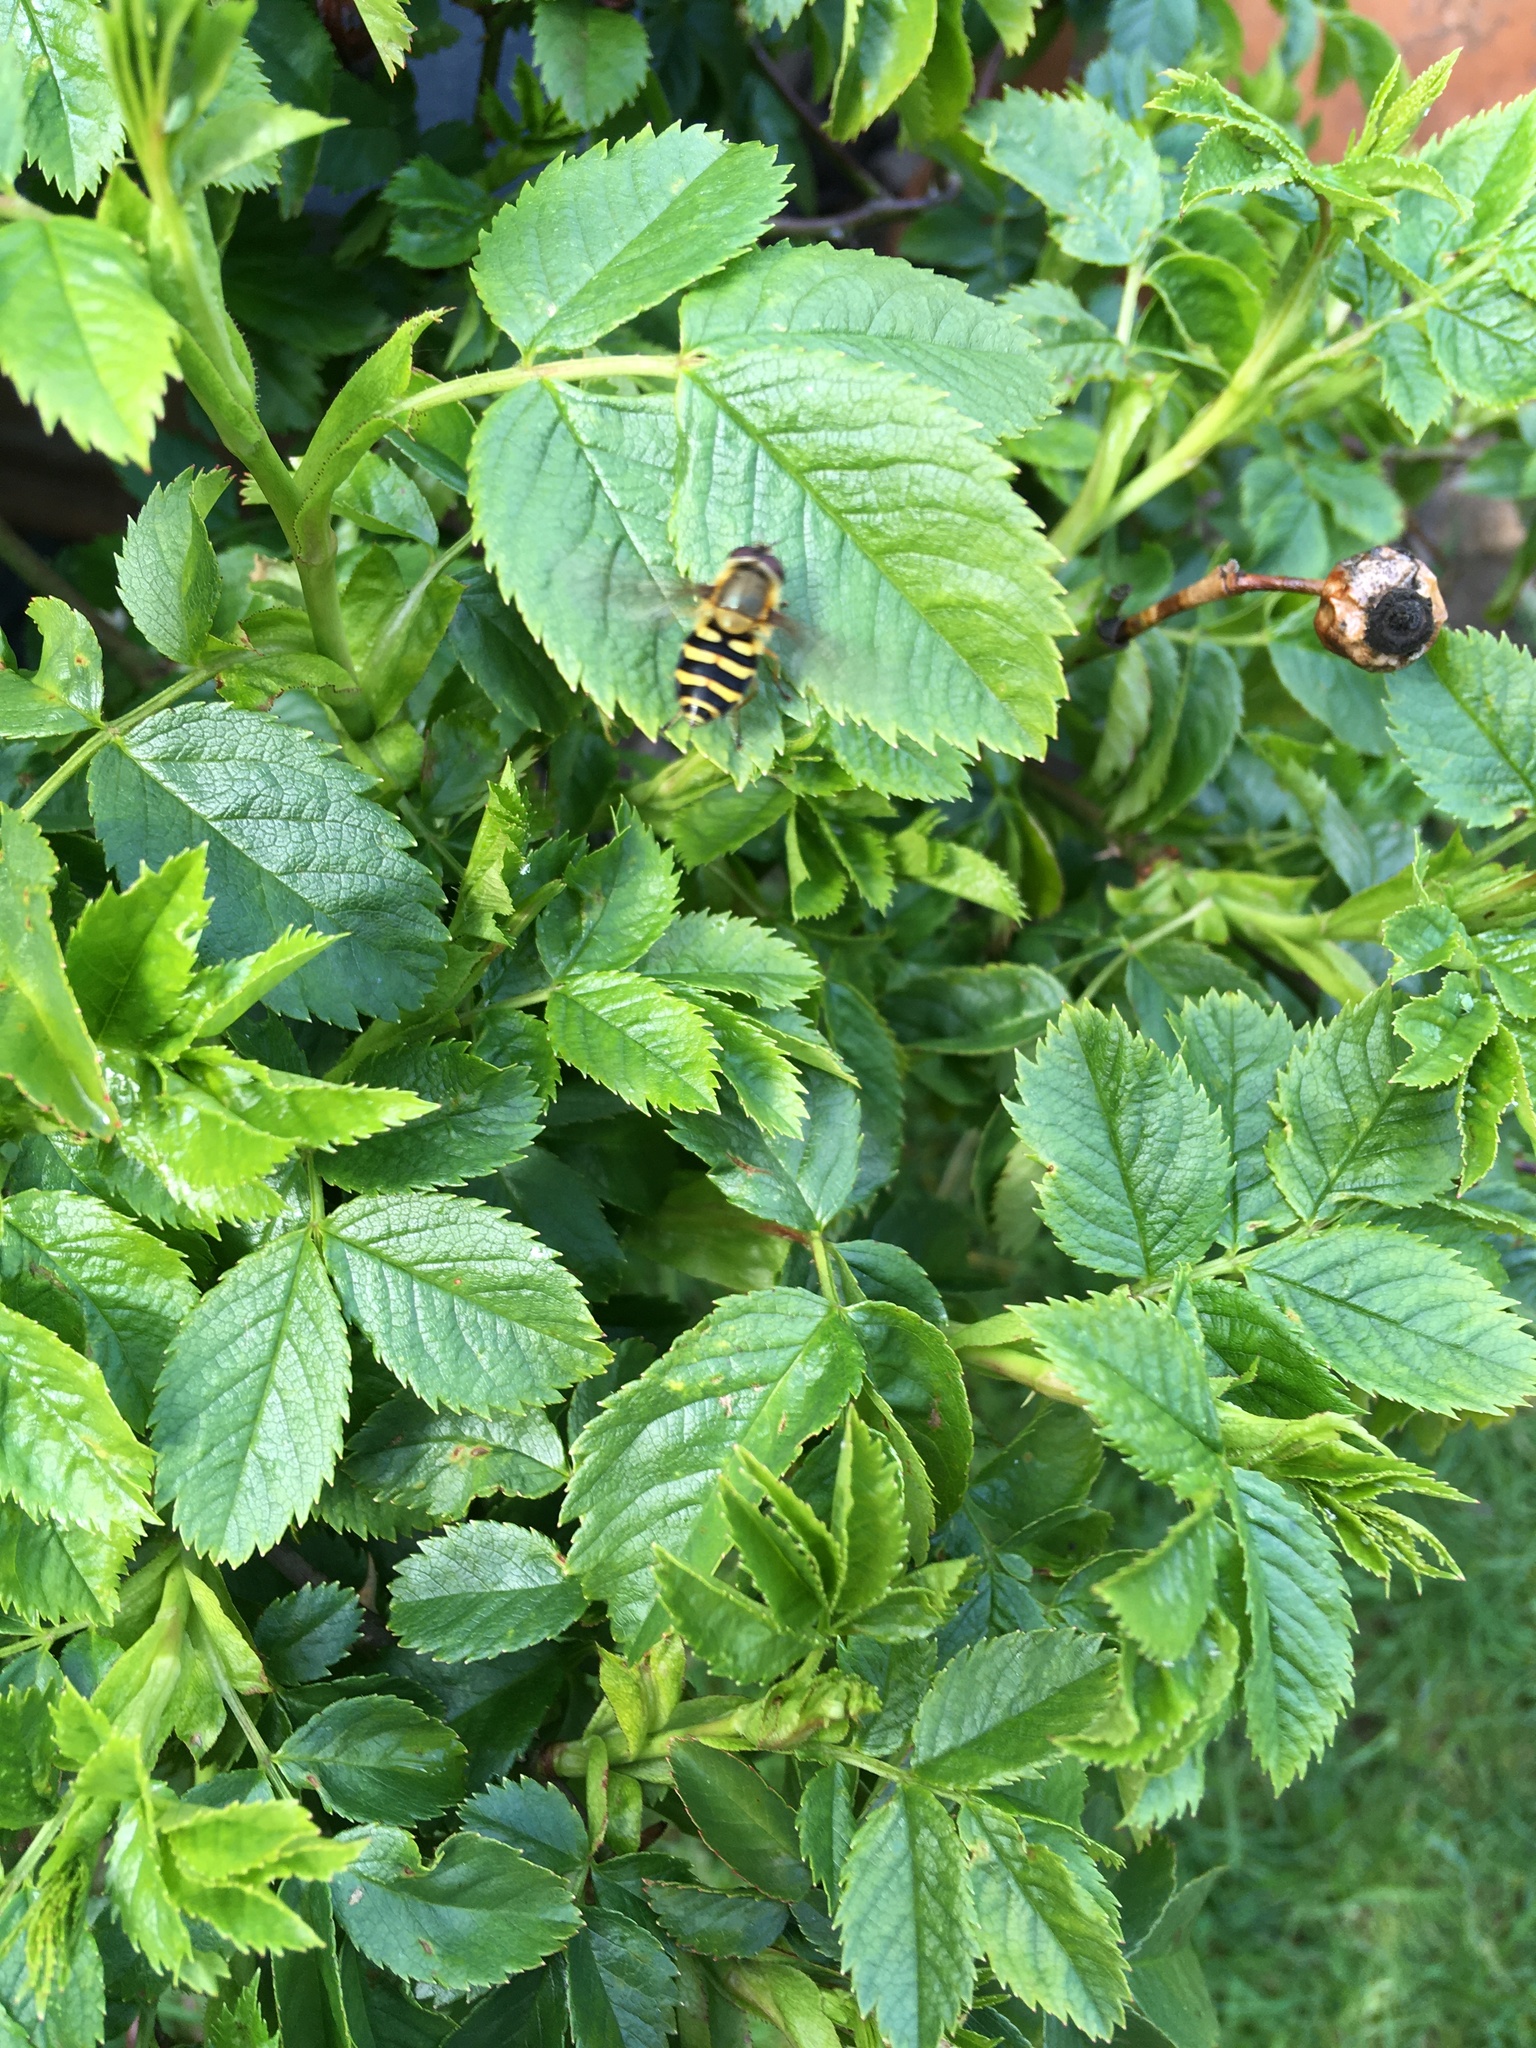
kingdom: Animalia
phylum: Arthropoda
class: Insecta
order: Diptera
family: Syrphidae
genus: Syrphus
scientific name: Syrphus
